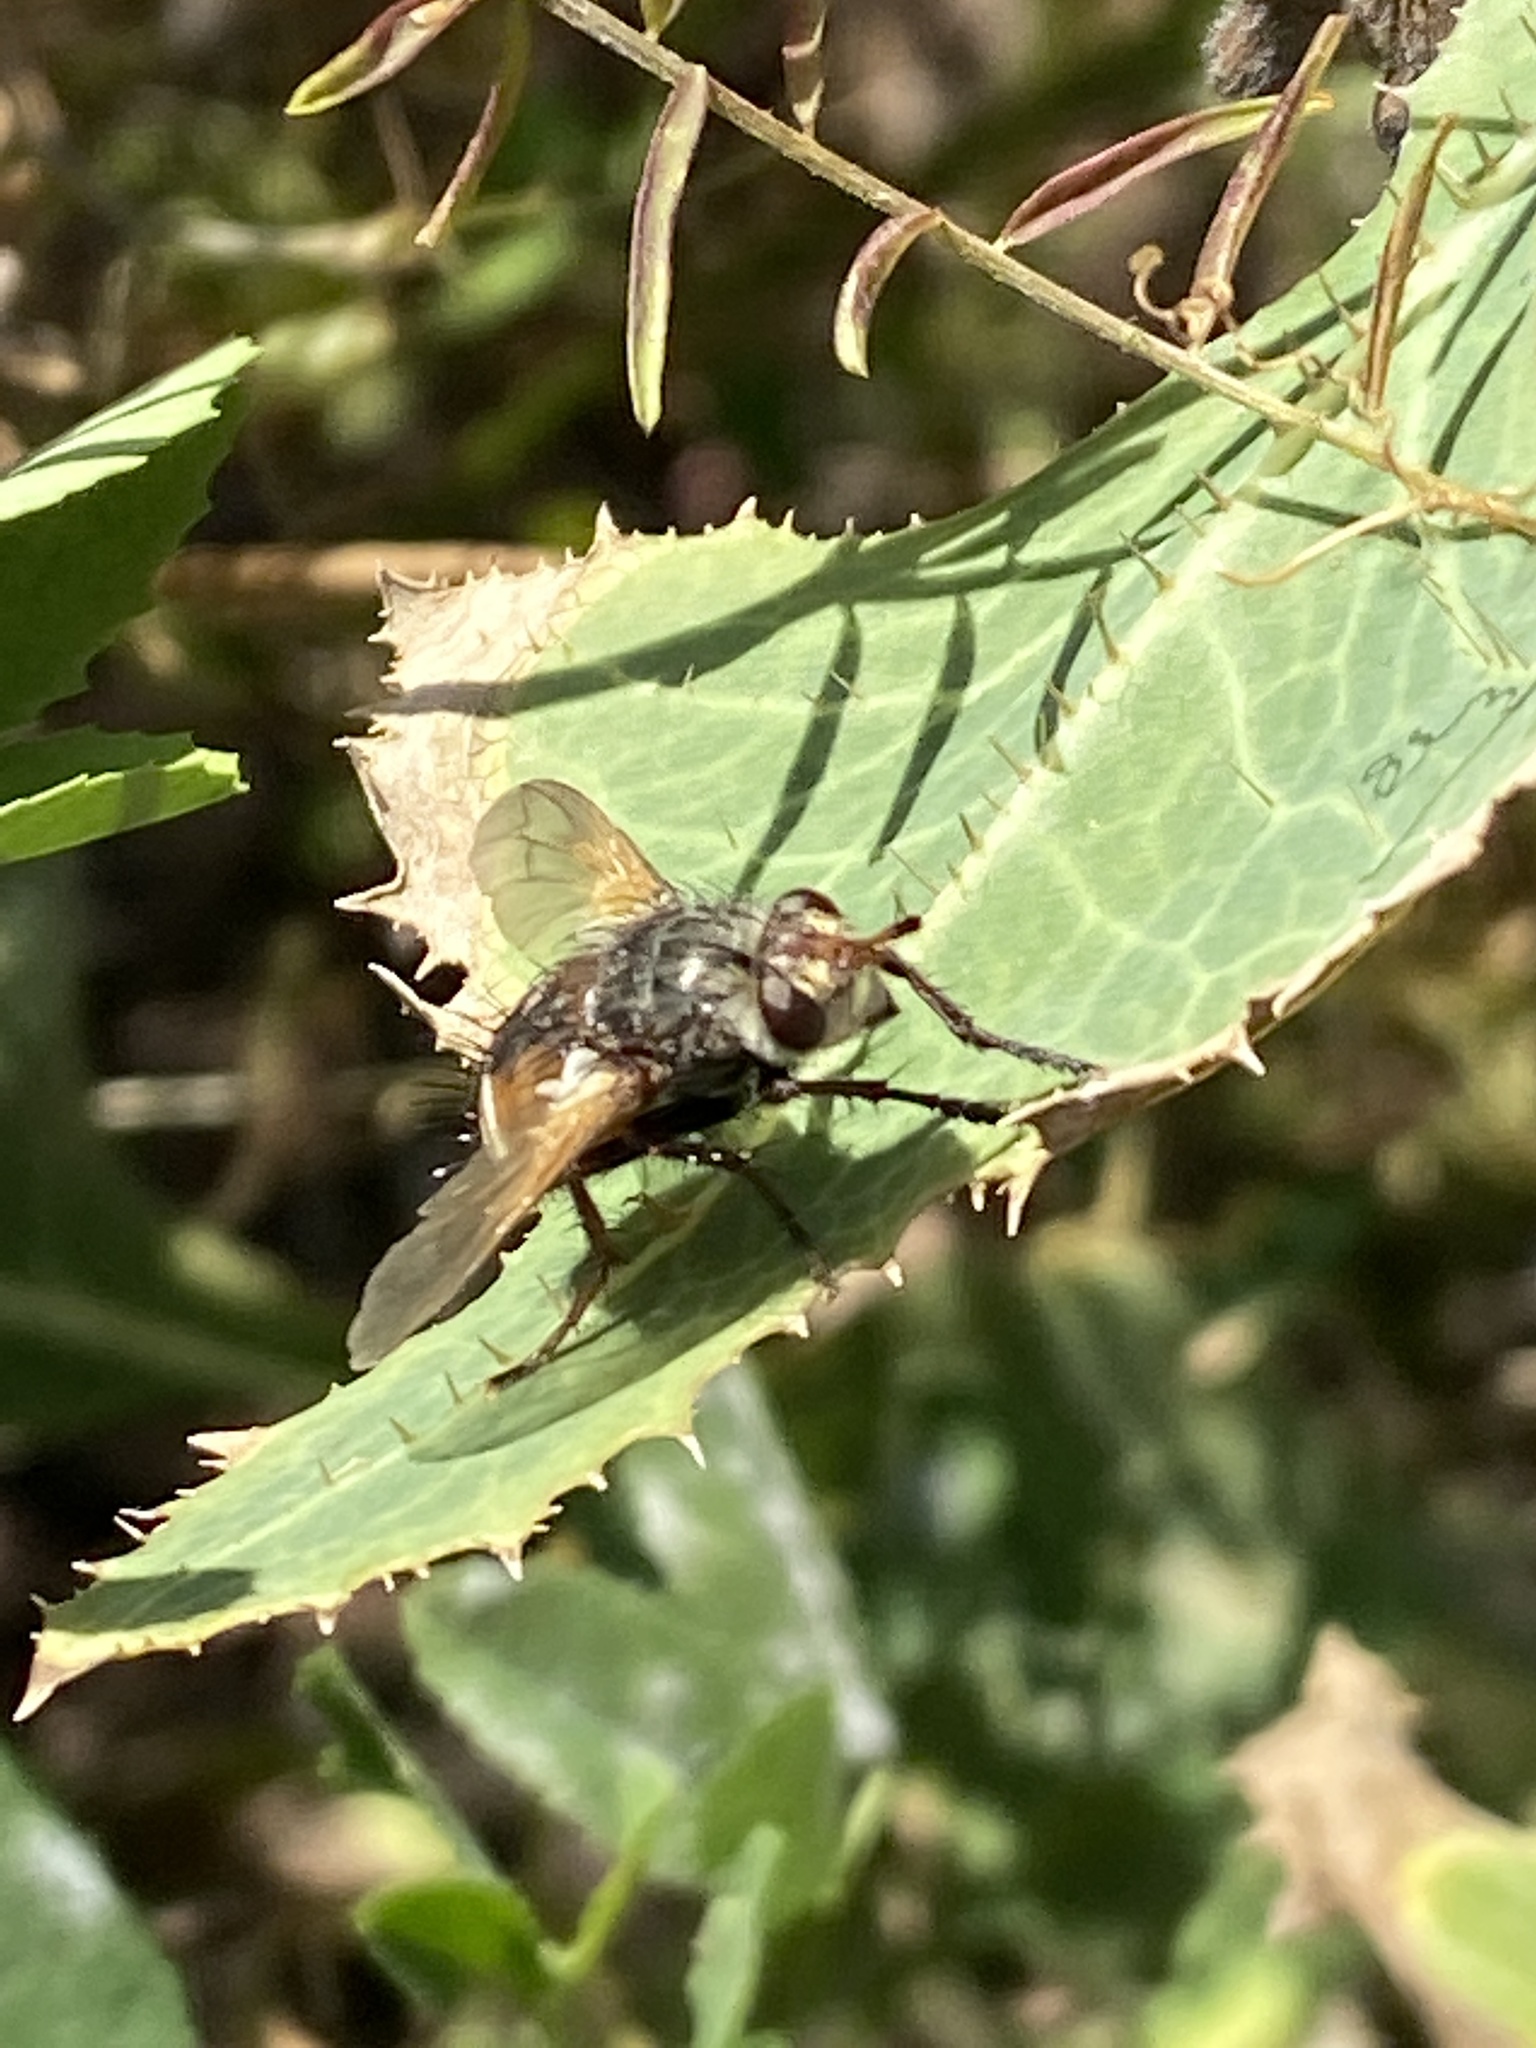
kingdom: Animalia
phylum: Arthropoda
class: Insecta
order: Diptera
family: Tachinidae
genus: Tachina
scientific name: Tachina fera
